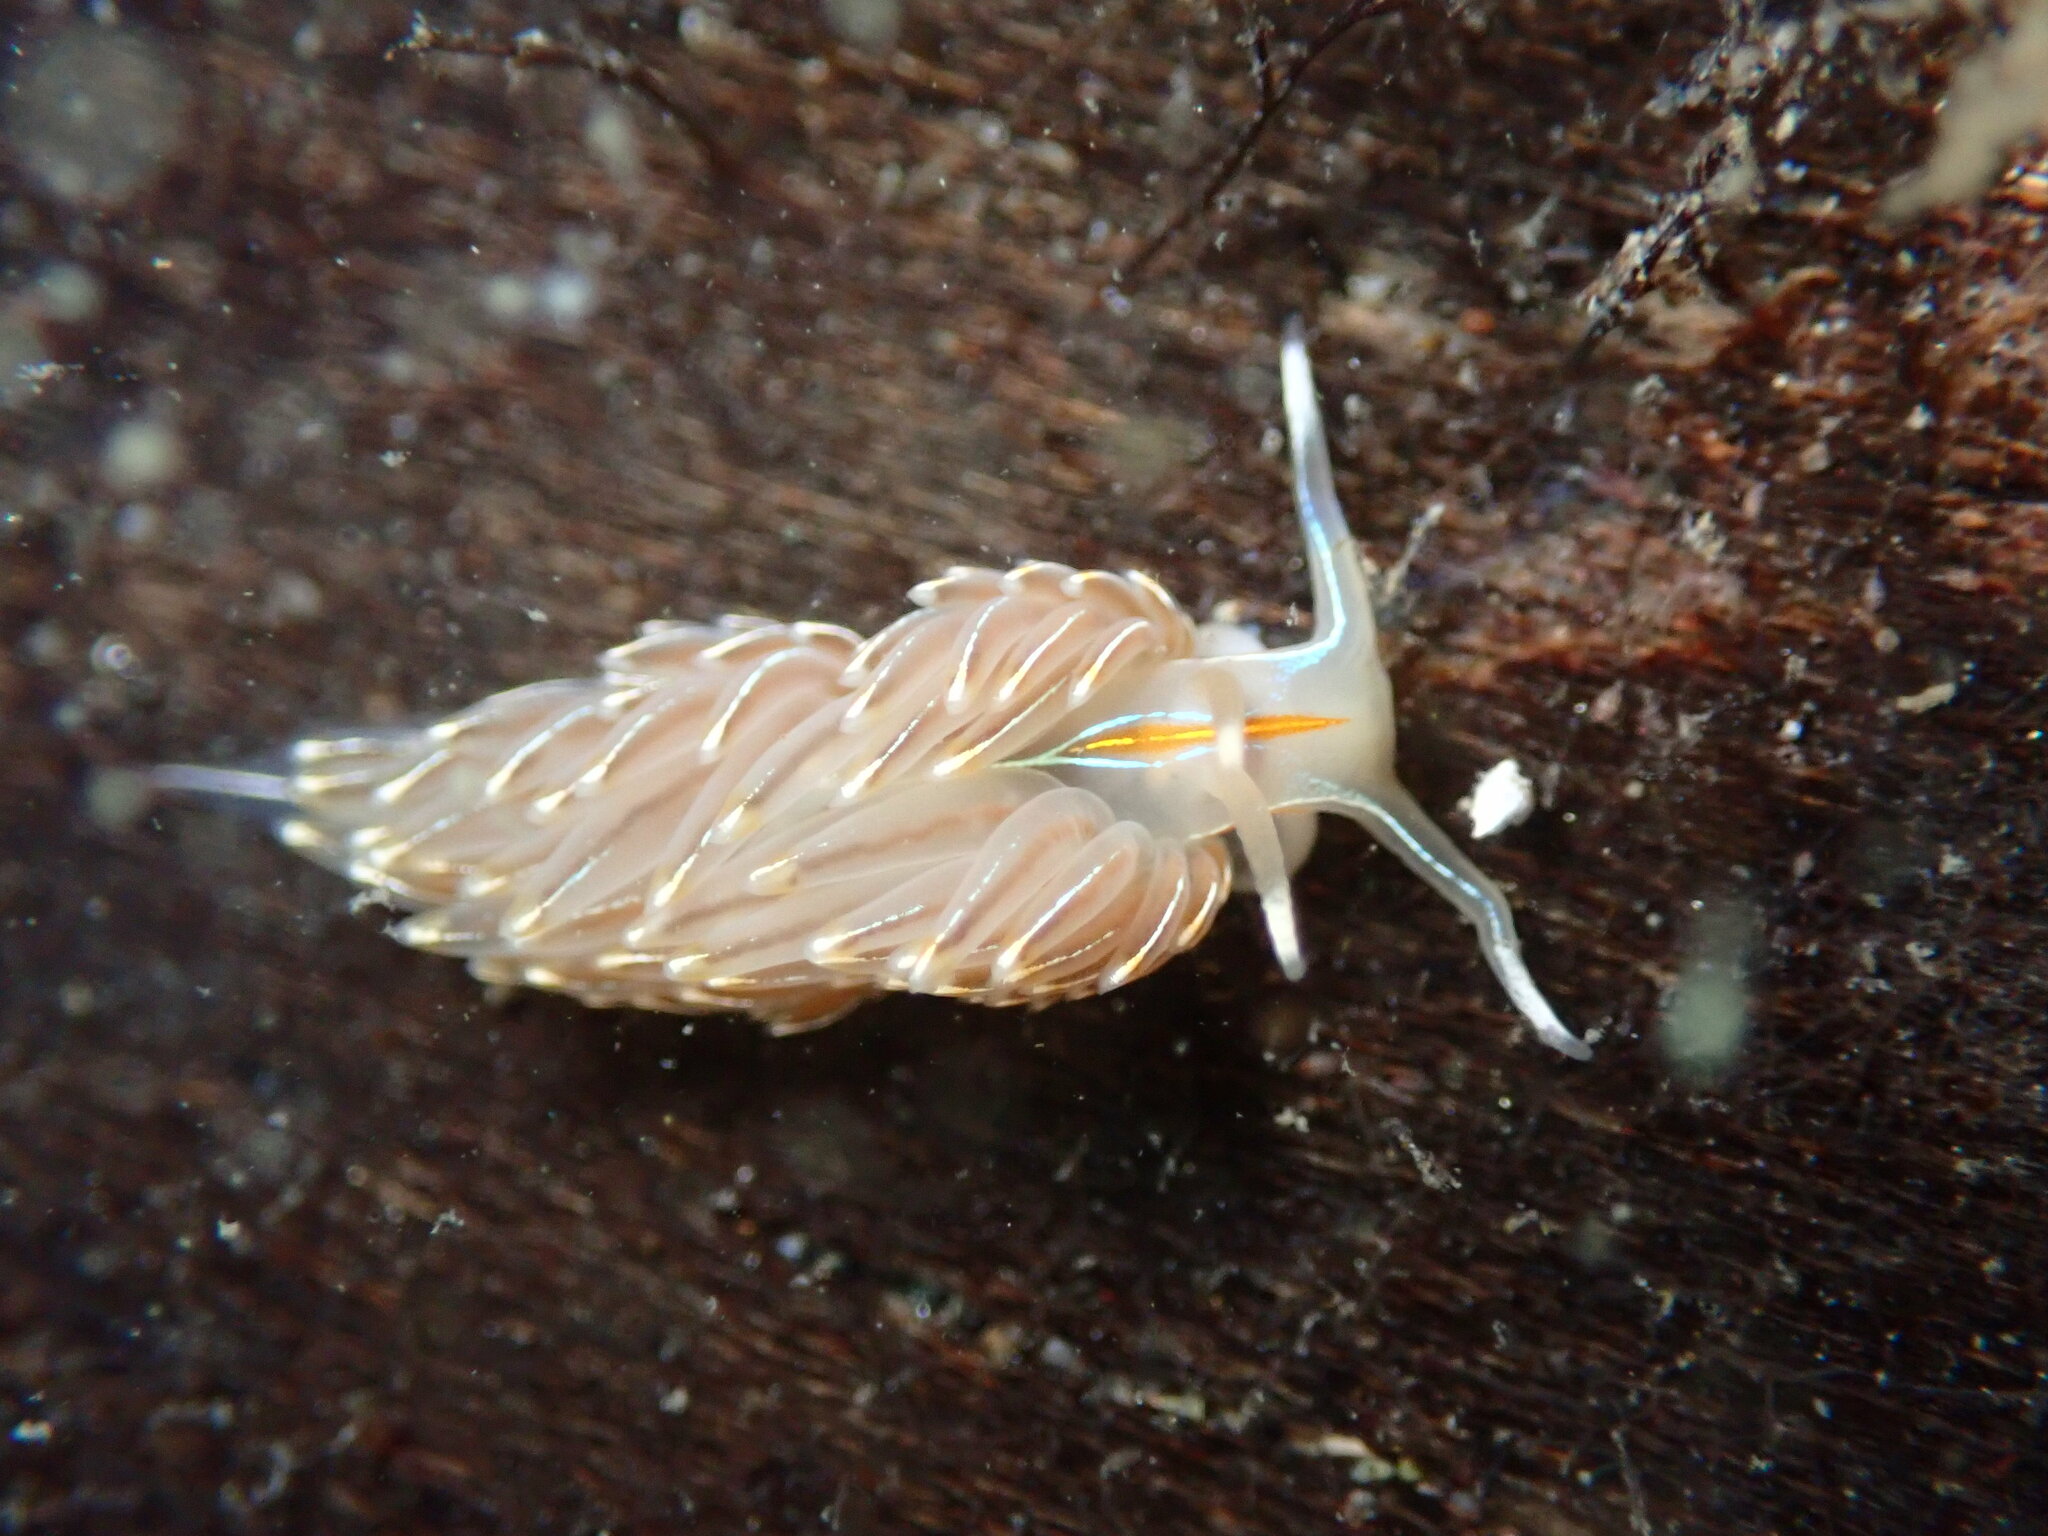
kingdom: Animalia
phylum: Mollusca
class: Gastropoda
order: Nudibranchia
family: Myrrhinidae
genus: Hermissenda
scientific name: Hermissenda crassicornis
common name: Hermissenda
